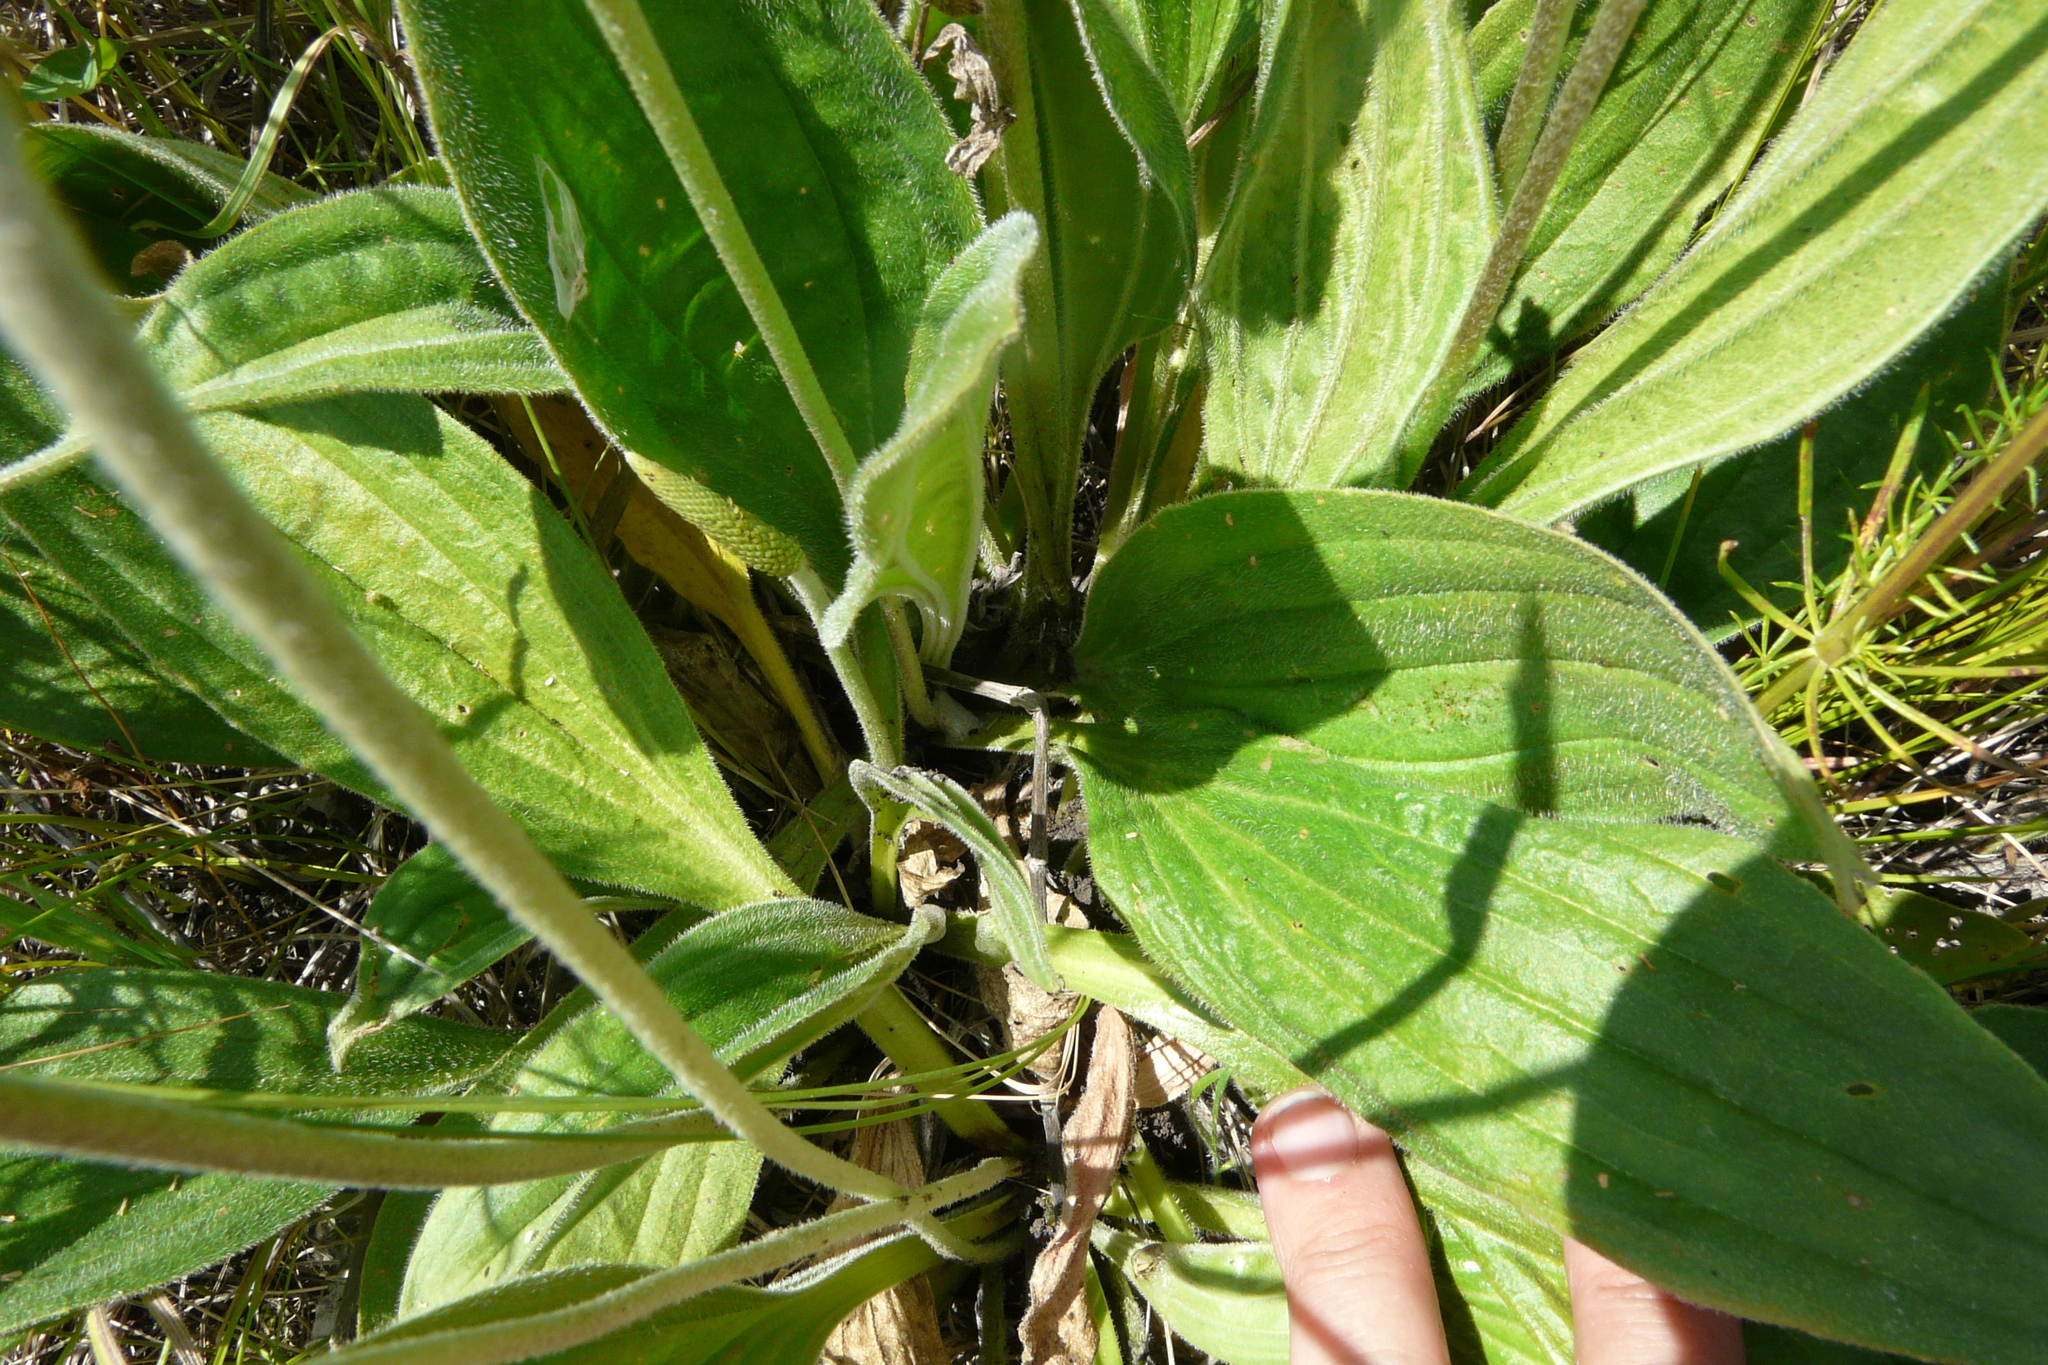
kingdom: Plantae
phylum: Tracheophyta
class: Magnoliopsida
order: Lamiales
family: Plantaginaceae
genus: Plantago
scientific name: Plantago urvillei
